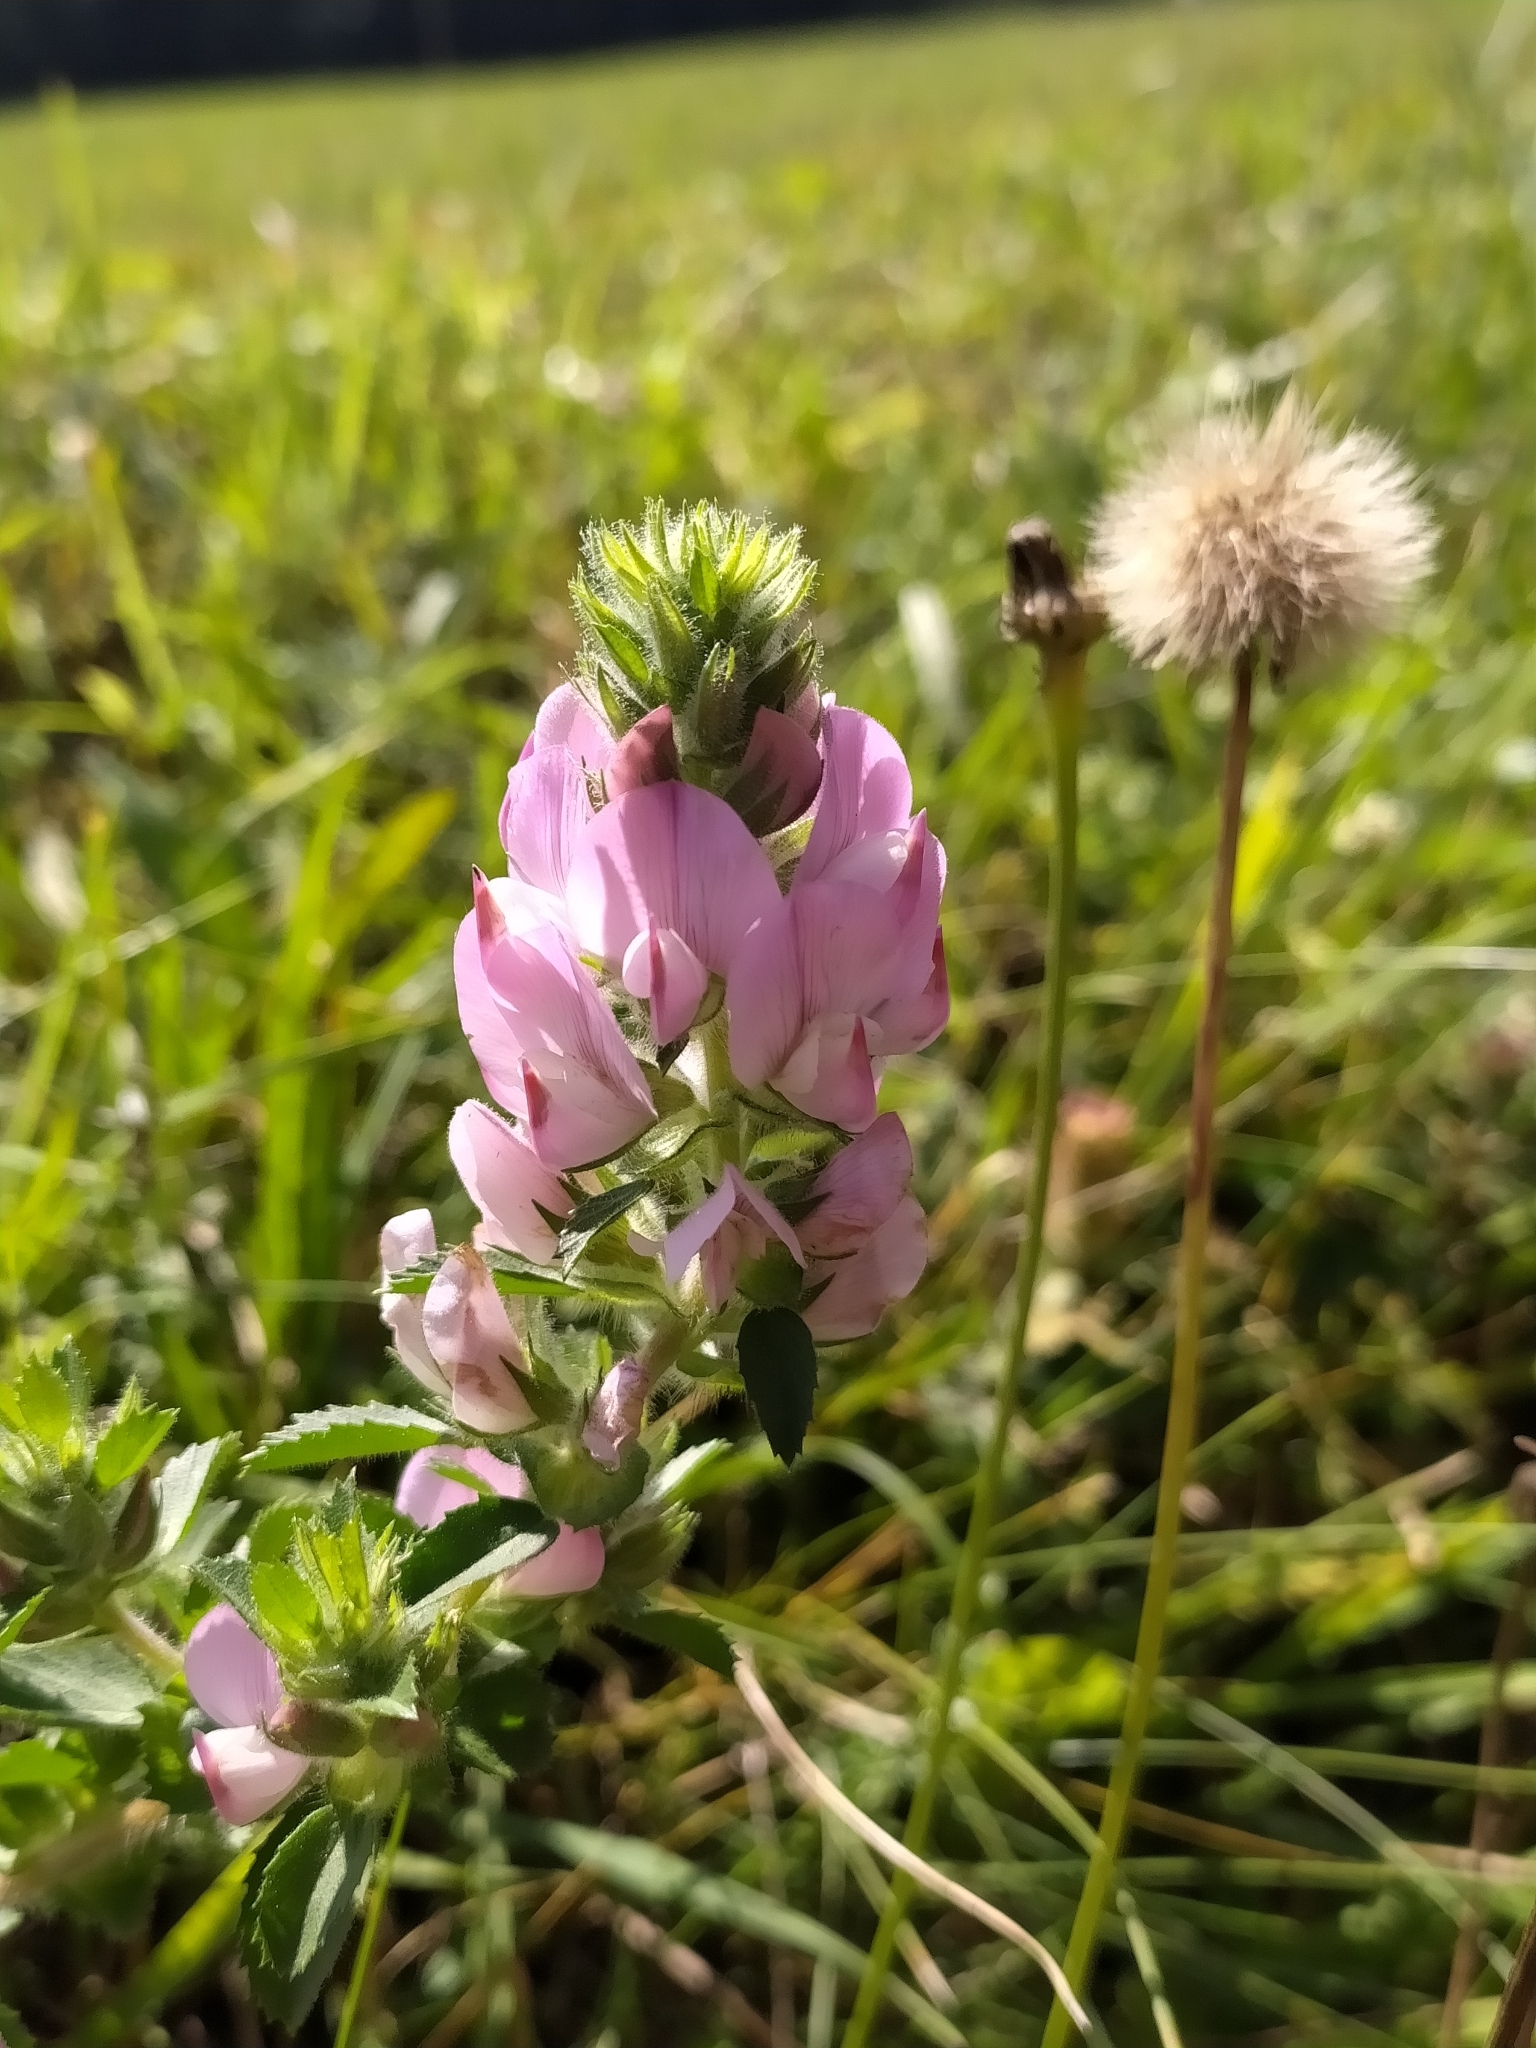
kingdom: Plantae
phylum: Tracheophyta
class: Magnoliopsida
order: Fabales
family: Fabaceae
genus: Ononis
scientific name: Ononis arvensis
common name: Field restharrow
